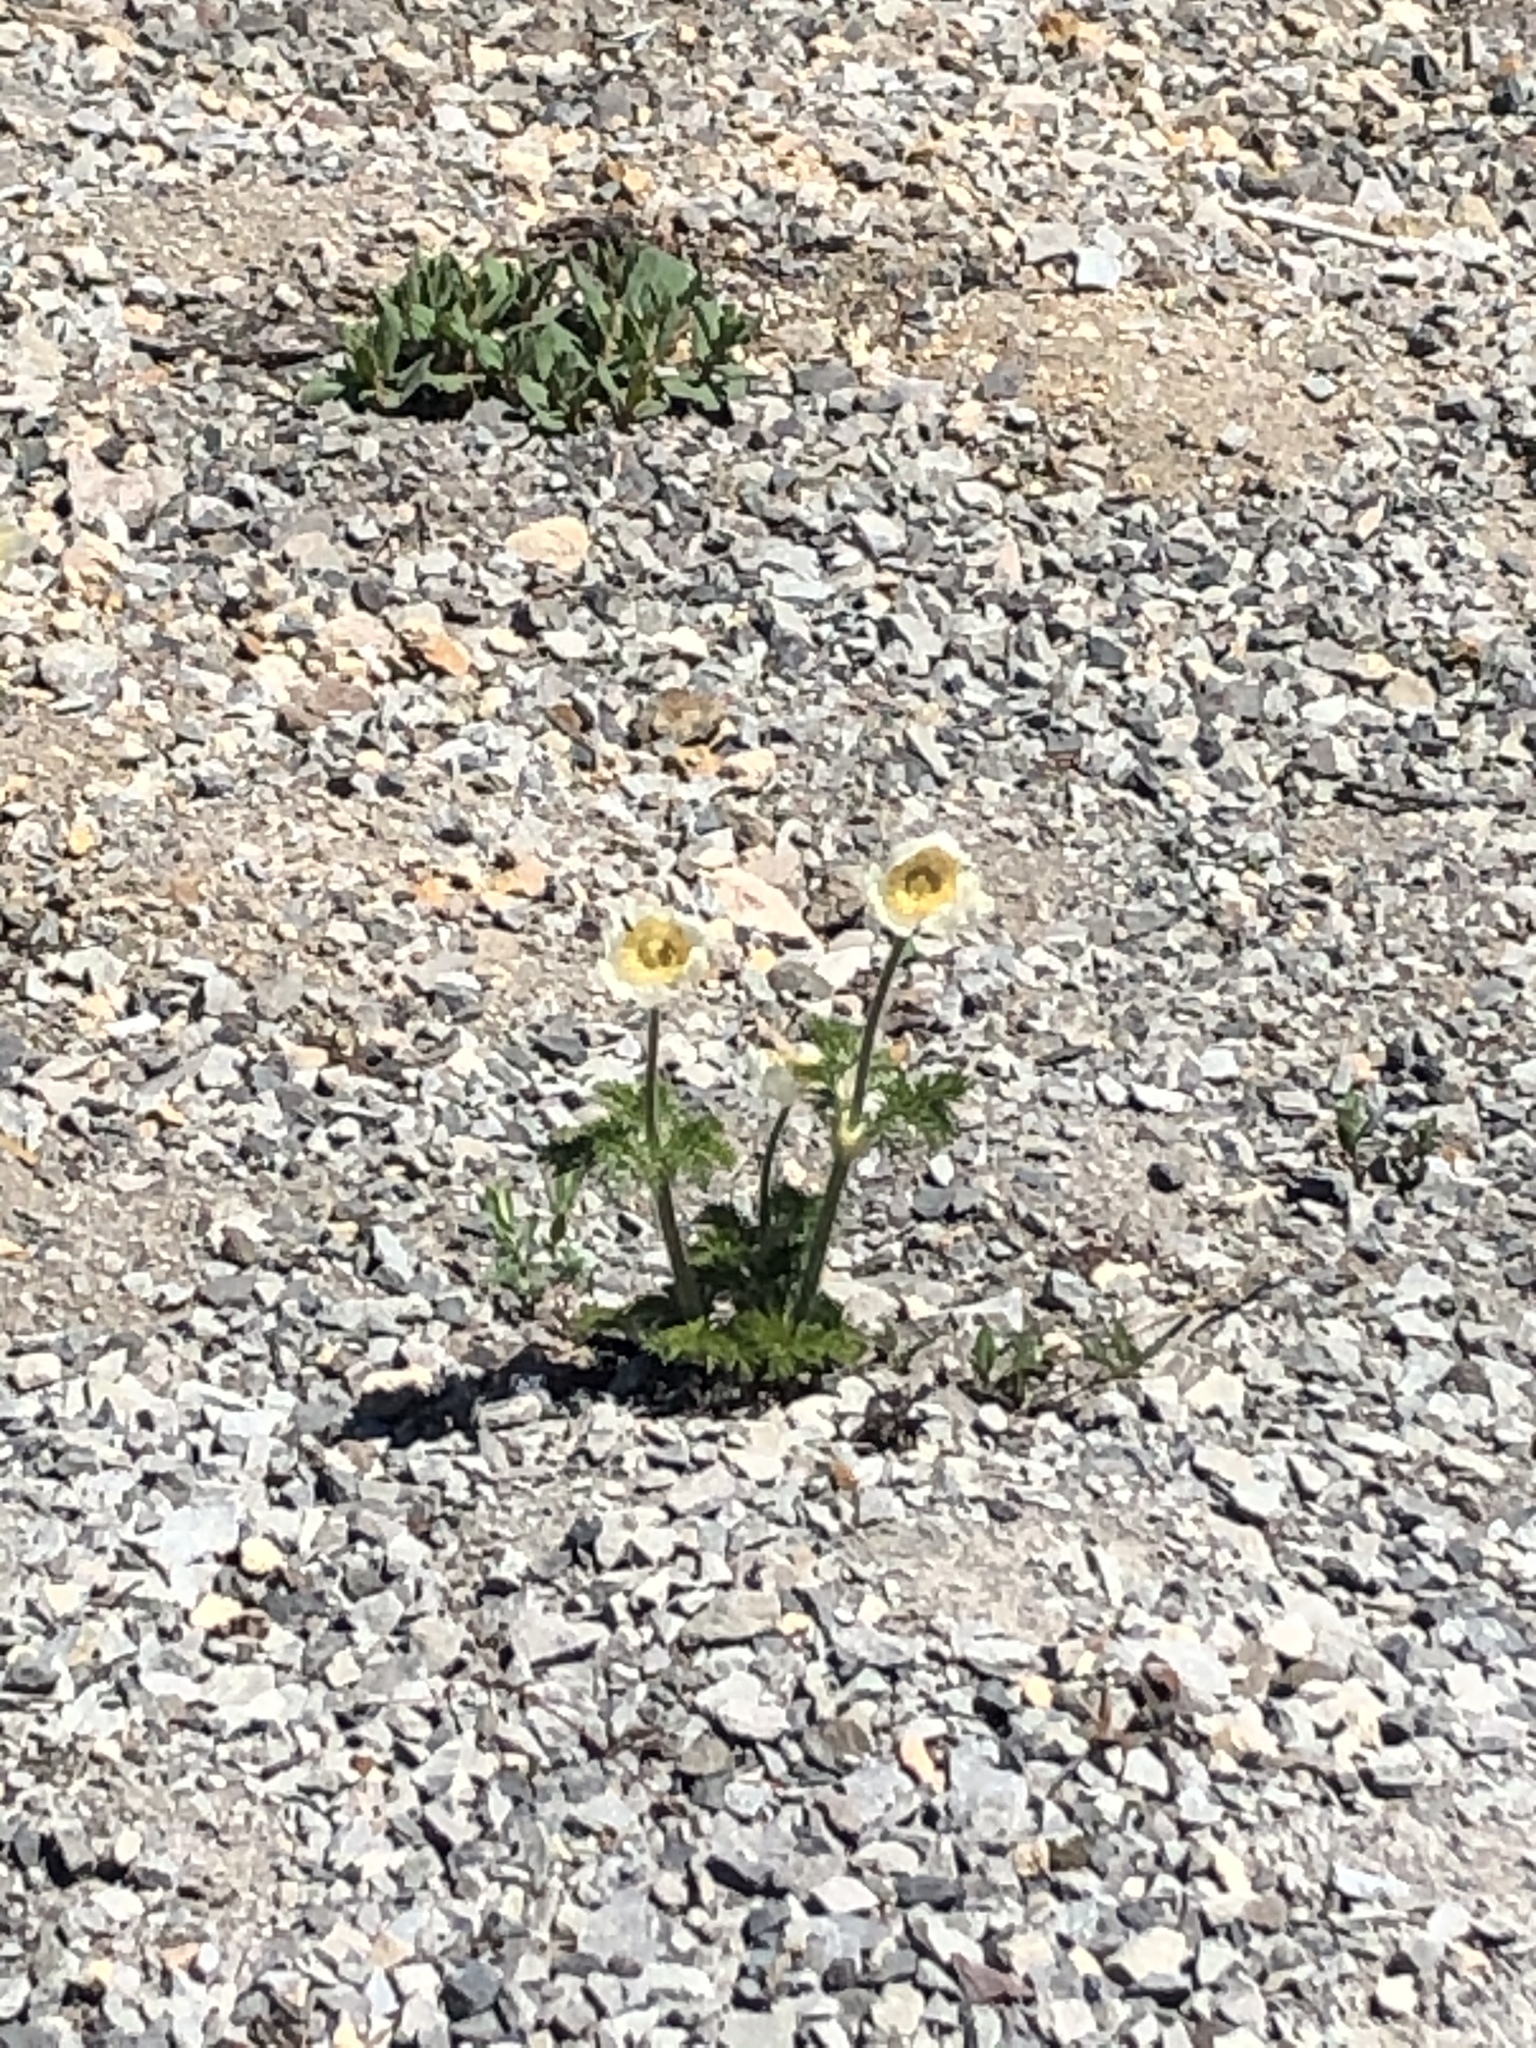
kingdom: Plantae
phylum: Tracheophyta
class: Magnoliopsida
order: Ranunculales
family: Ranunculaceae
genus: Pulsatilla
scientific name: Pulsatilla occidentalis
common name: Mountain pasqueflower
